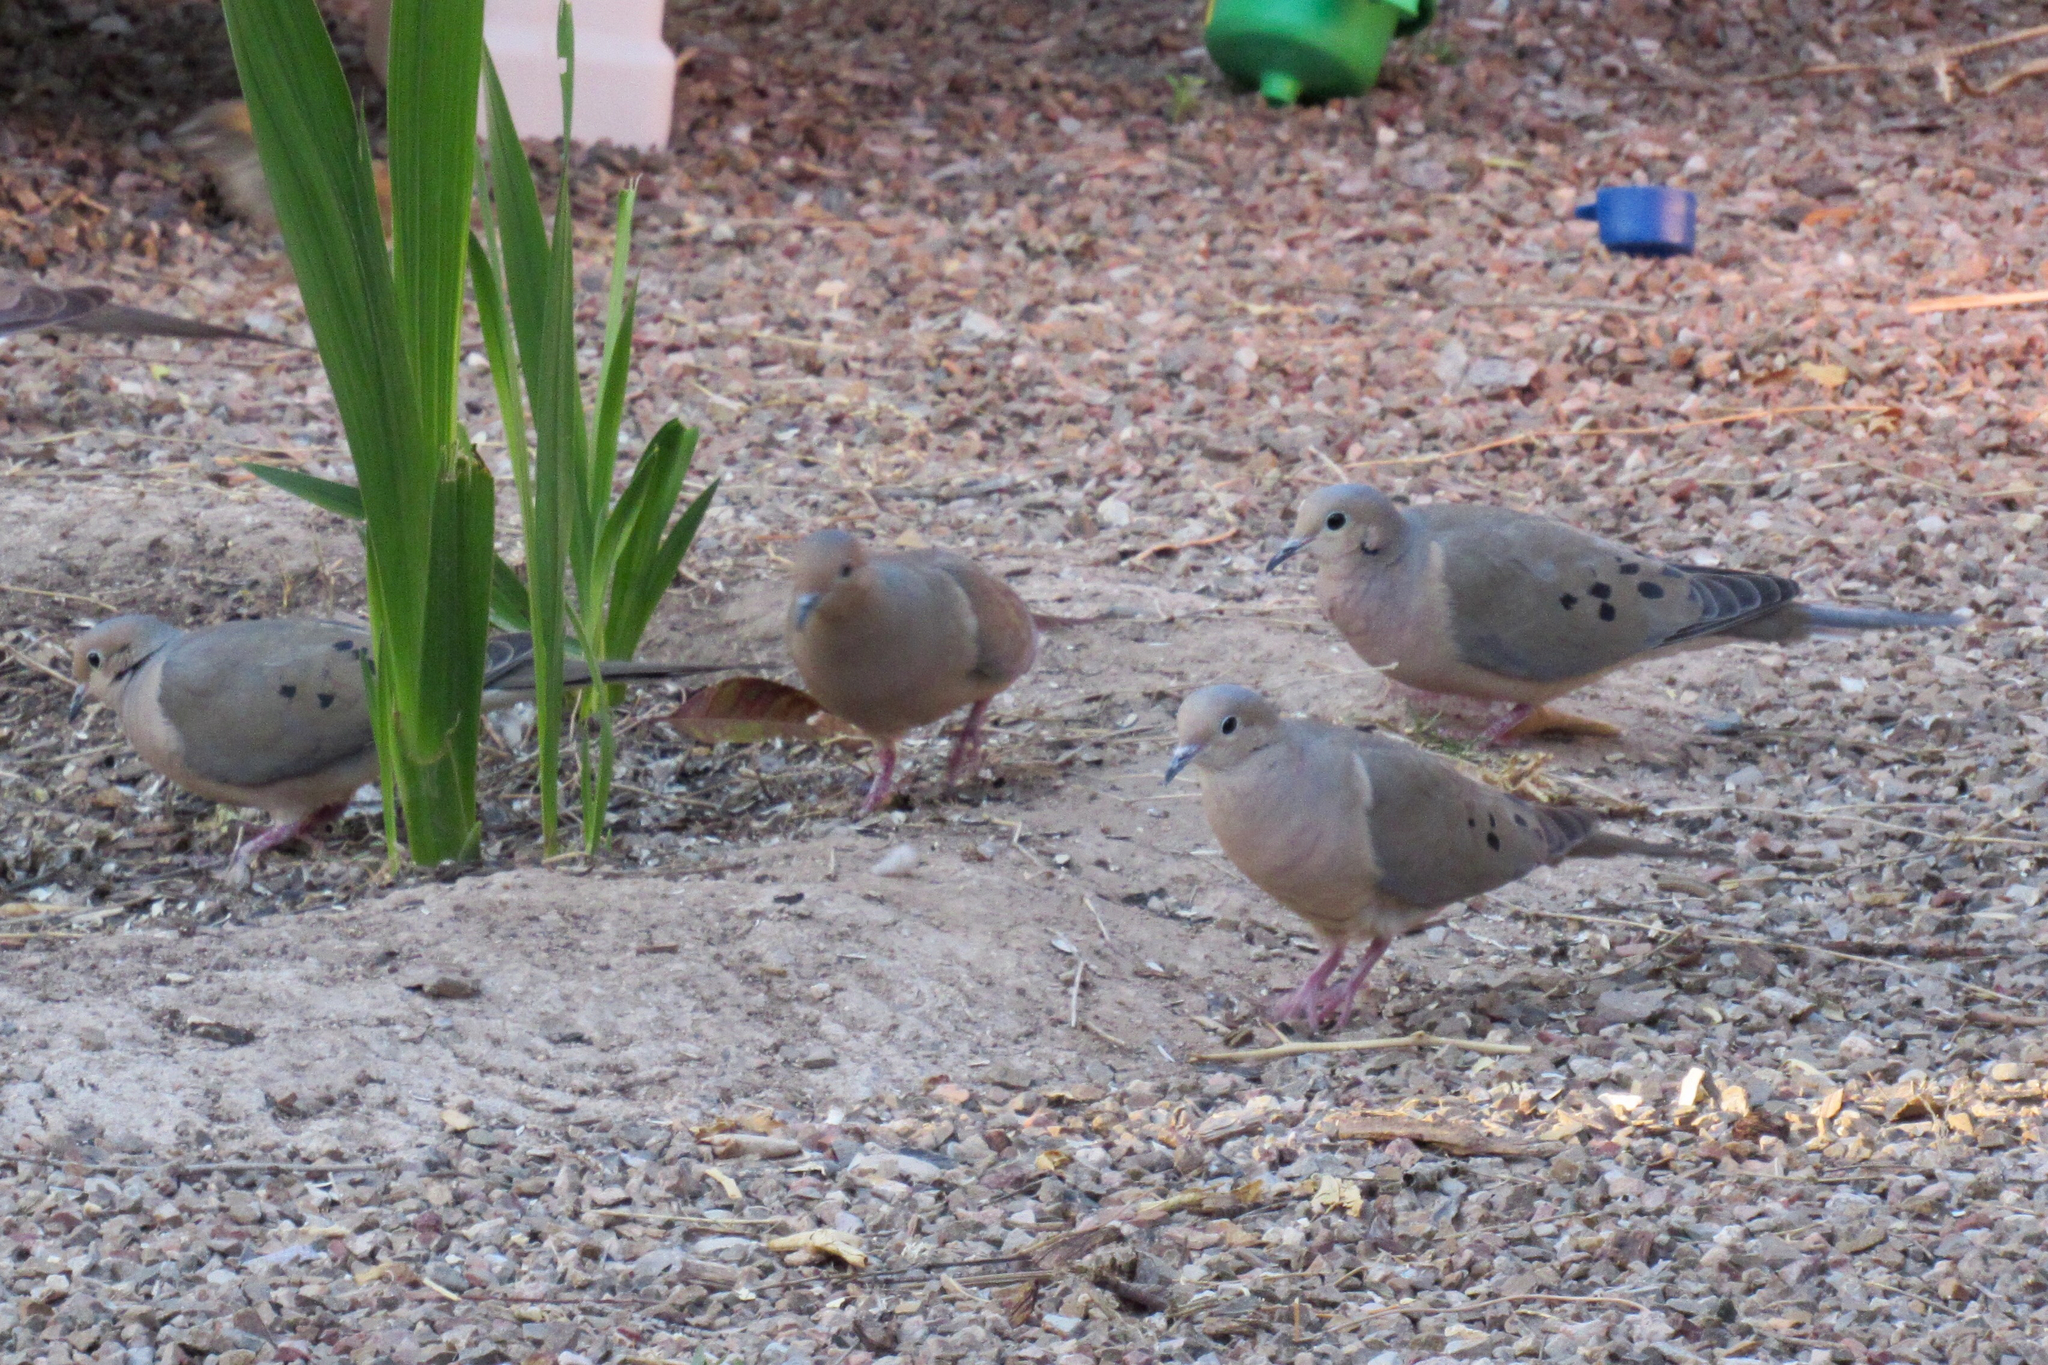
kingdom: Animalia
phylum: Chordata
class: Aves
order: Columbiformes
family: Columbidae
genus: Zenaida
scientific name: Zenaida macroura
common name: Mourning dove
